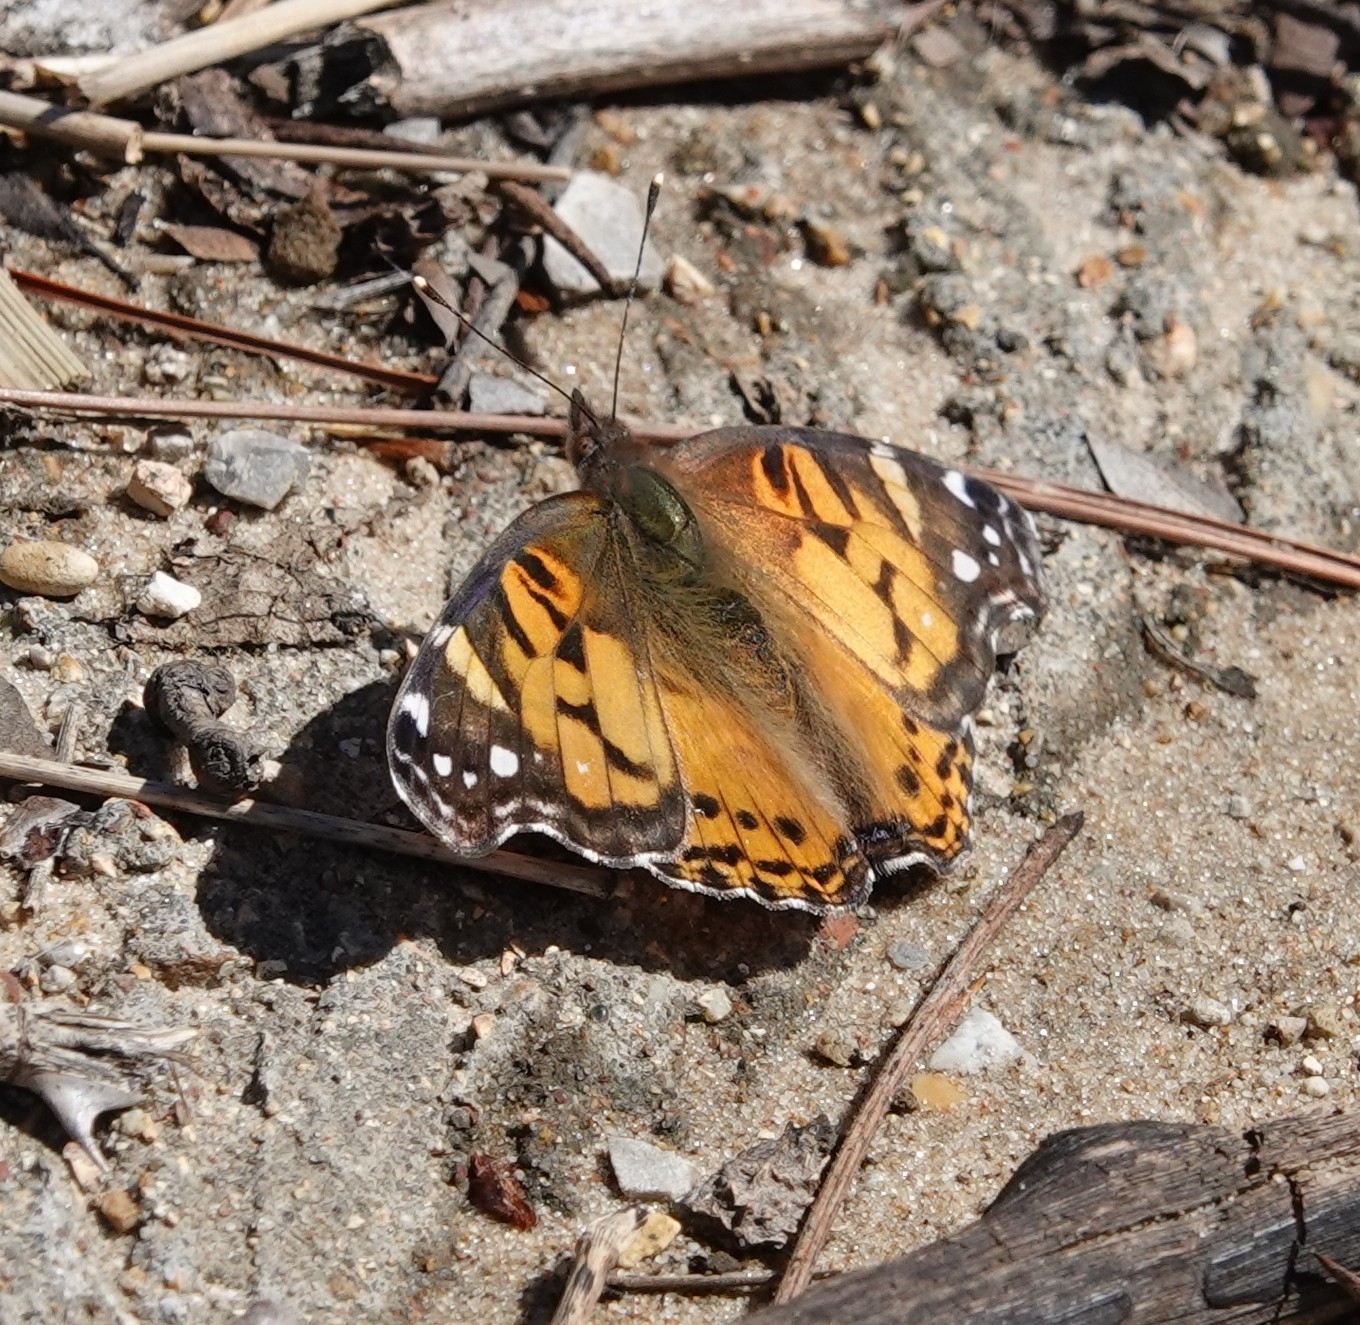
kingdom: Animalia
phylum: Arthropoda
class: Insecta
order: Lepidoptera
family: Nymphalidae
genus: Vanessa
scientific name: Vanessa virginiensis
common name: American lady
